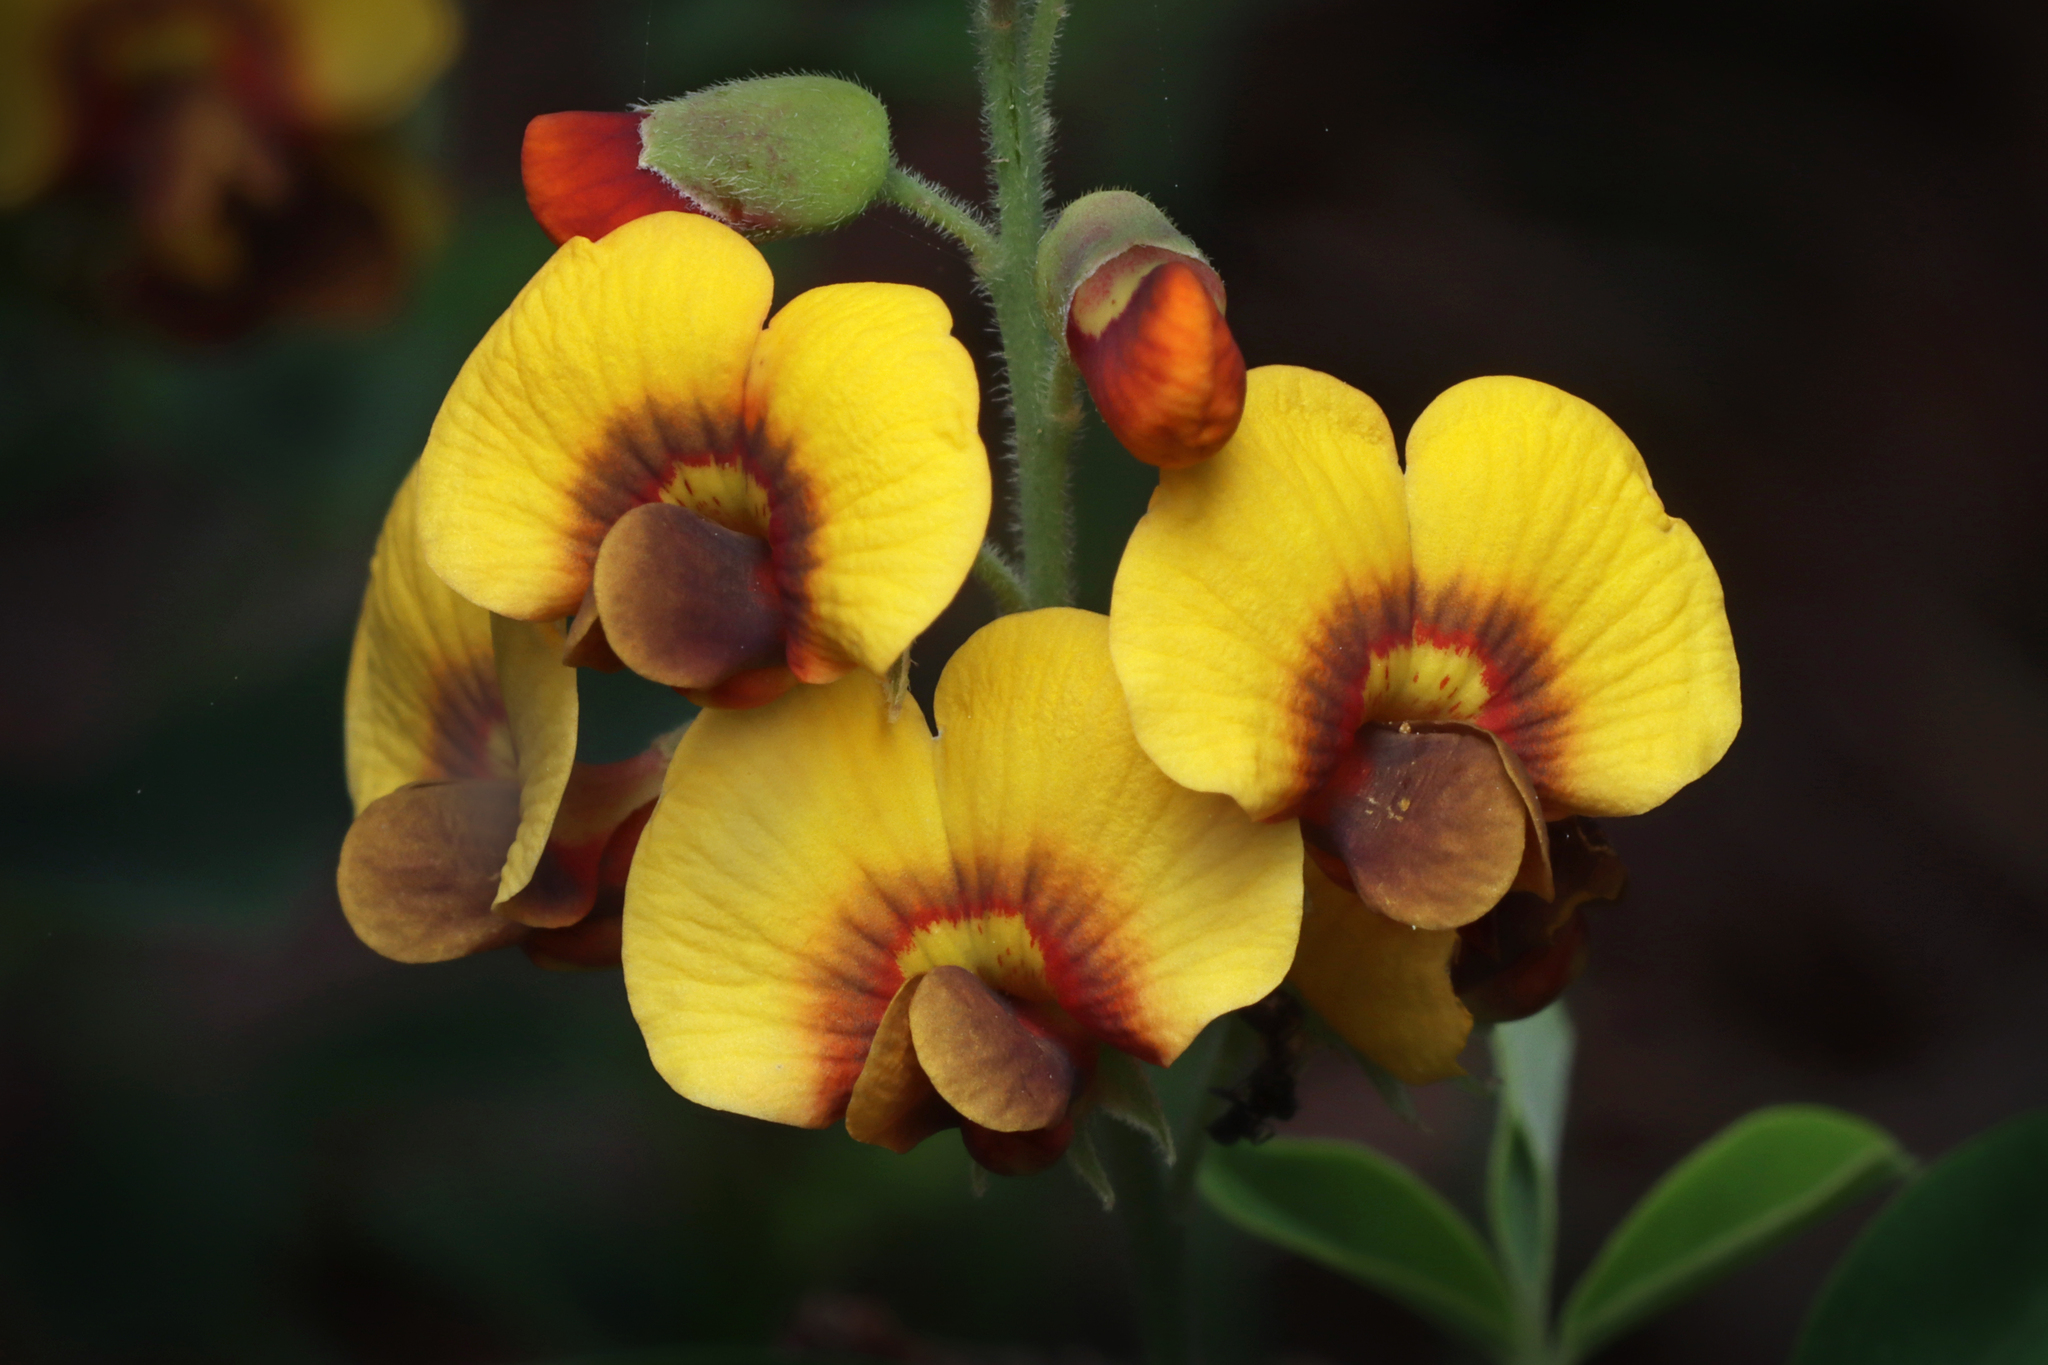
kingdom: Plantae
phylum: Tracheophyta
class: Magnoliopsida
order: Fabales
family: Fabaceae
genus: Goodia
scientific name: Goodia medicaginea
